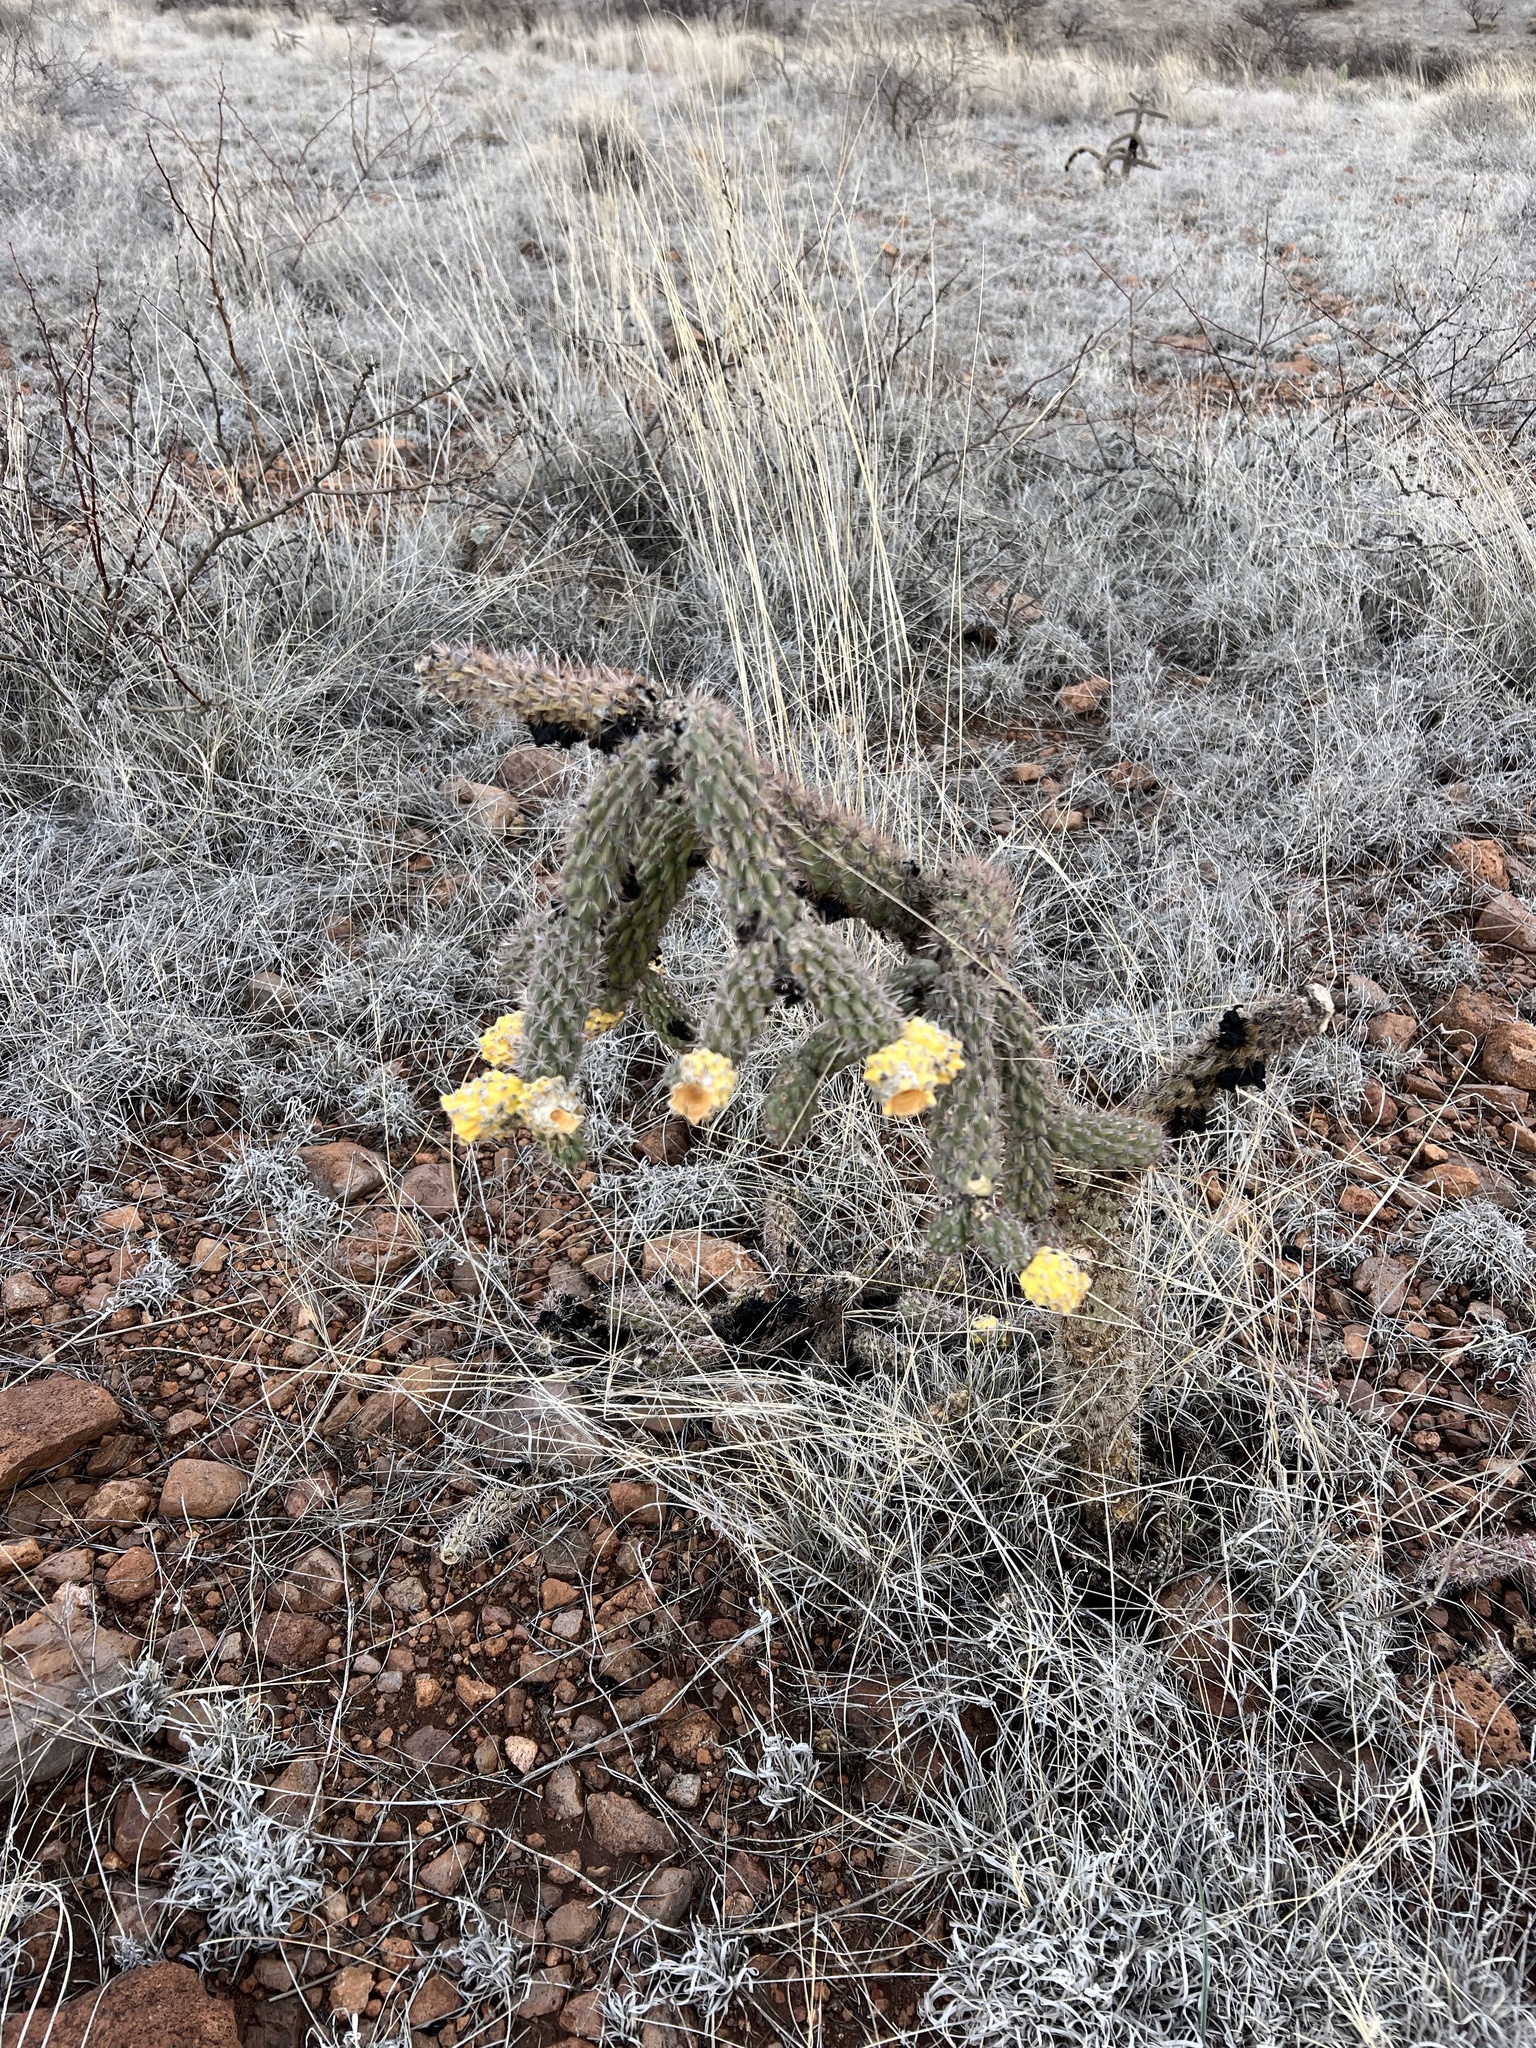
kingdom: Plantae
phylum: Tracheophyta
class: Magnoliopsida
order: Caryophyllales
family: Cactaceae
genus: Cylindropuntia
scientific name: Cylindropuntia imbricata
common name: Candelabrum cactus
